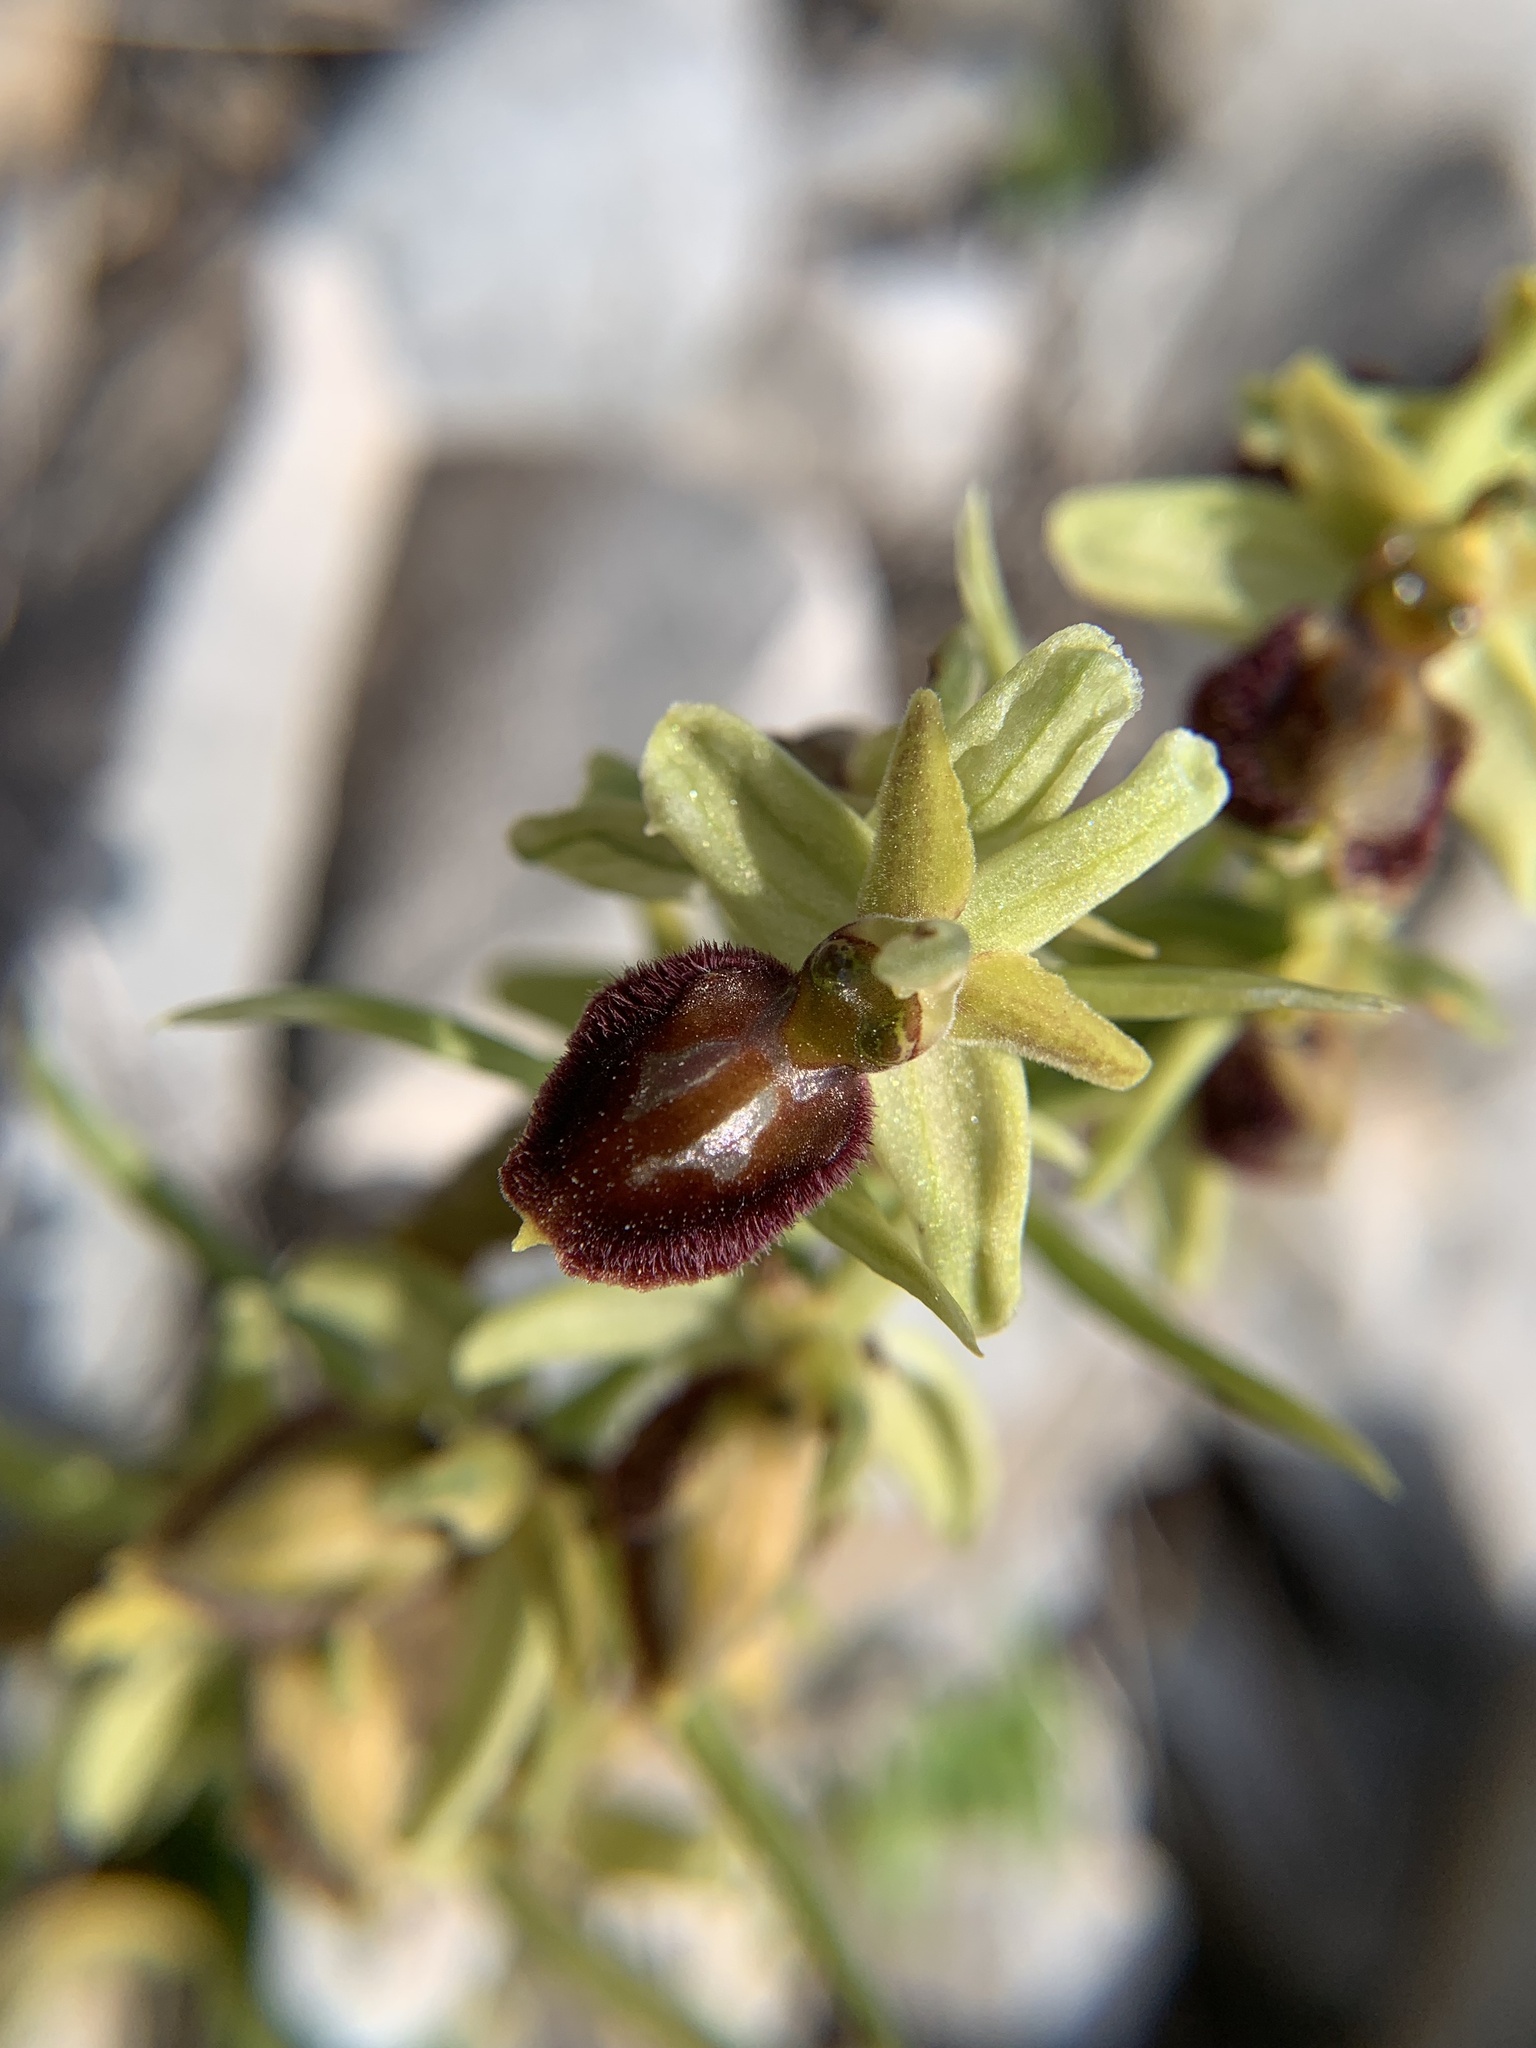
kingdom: Plantae
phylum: Tracheophyta
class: Liliopsida
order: Asparagales
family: Orchidaceae
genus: Ophrys
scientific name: Ophrys sphegodes
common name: Early spider-orchid
